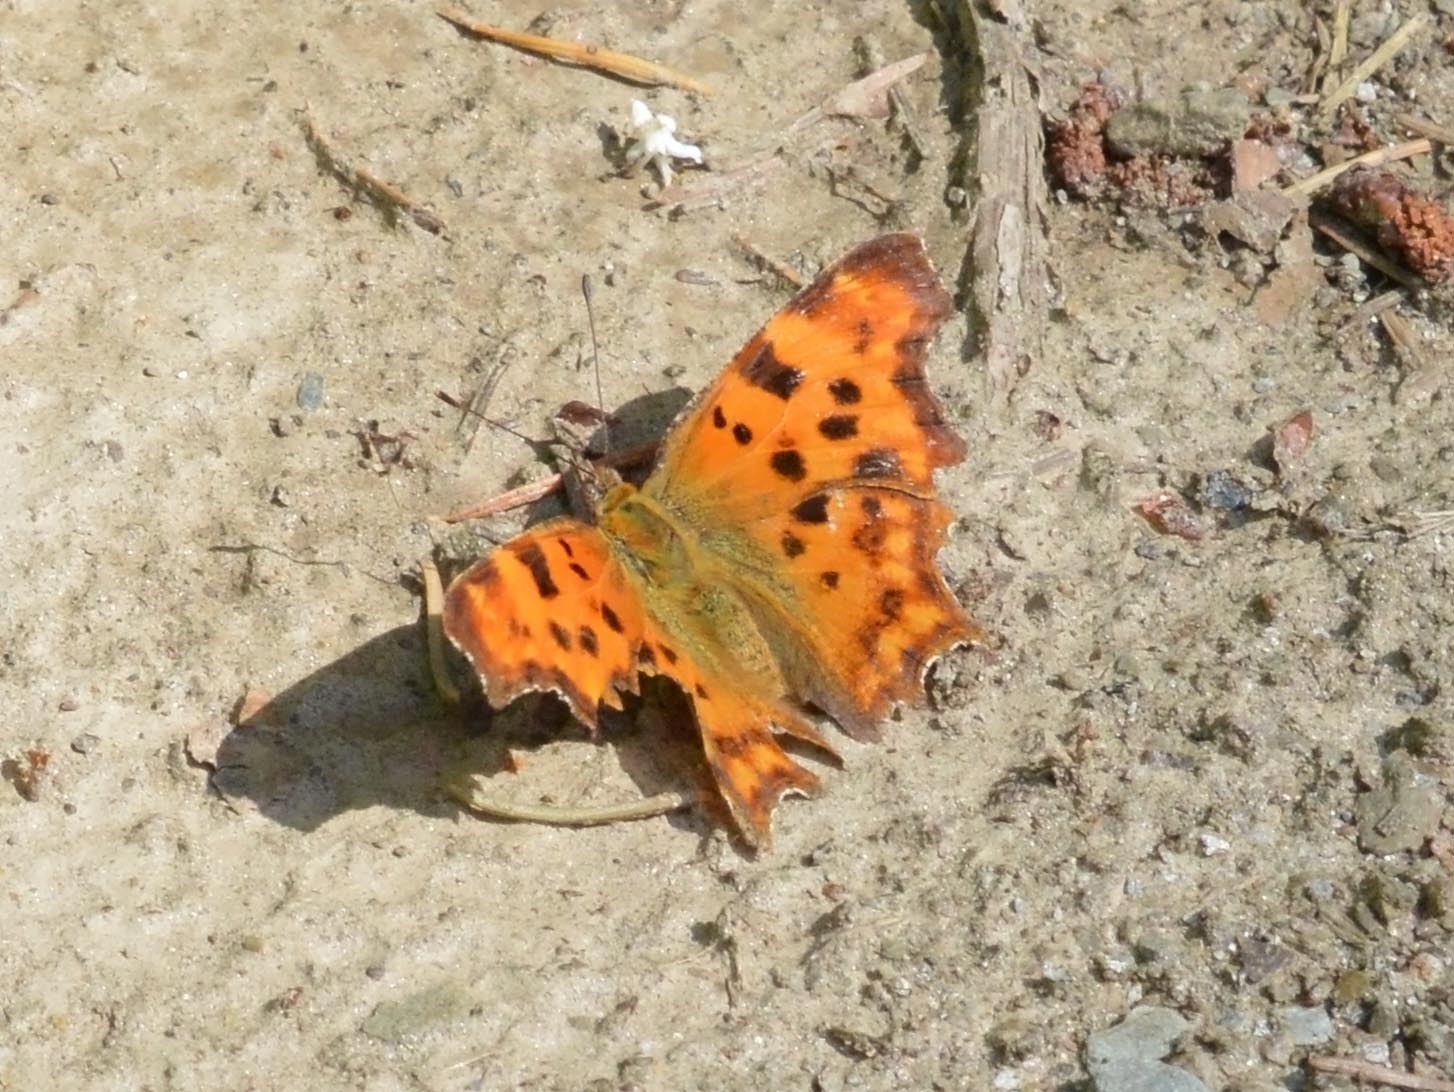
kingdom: Animalia
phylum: Arthropoda
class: Insecta
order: Lepidoptera
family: Nymphalidae
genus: Polygonia
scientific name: Polygonia c-album
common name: Comma
